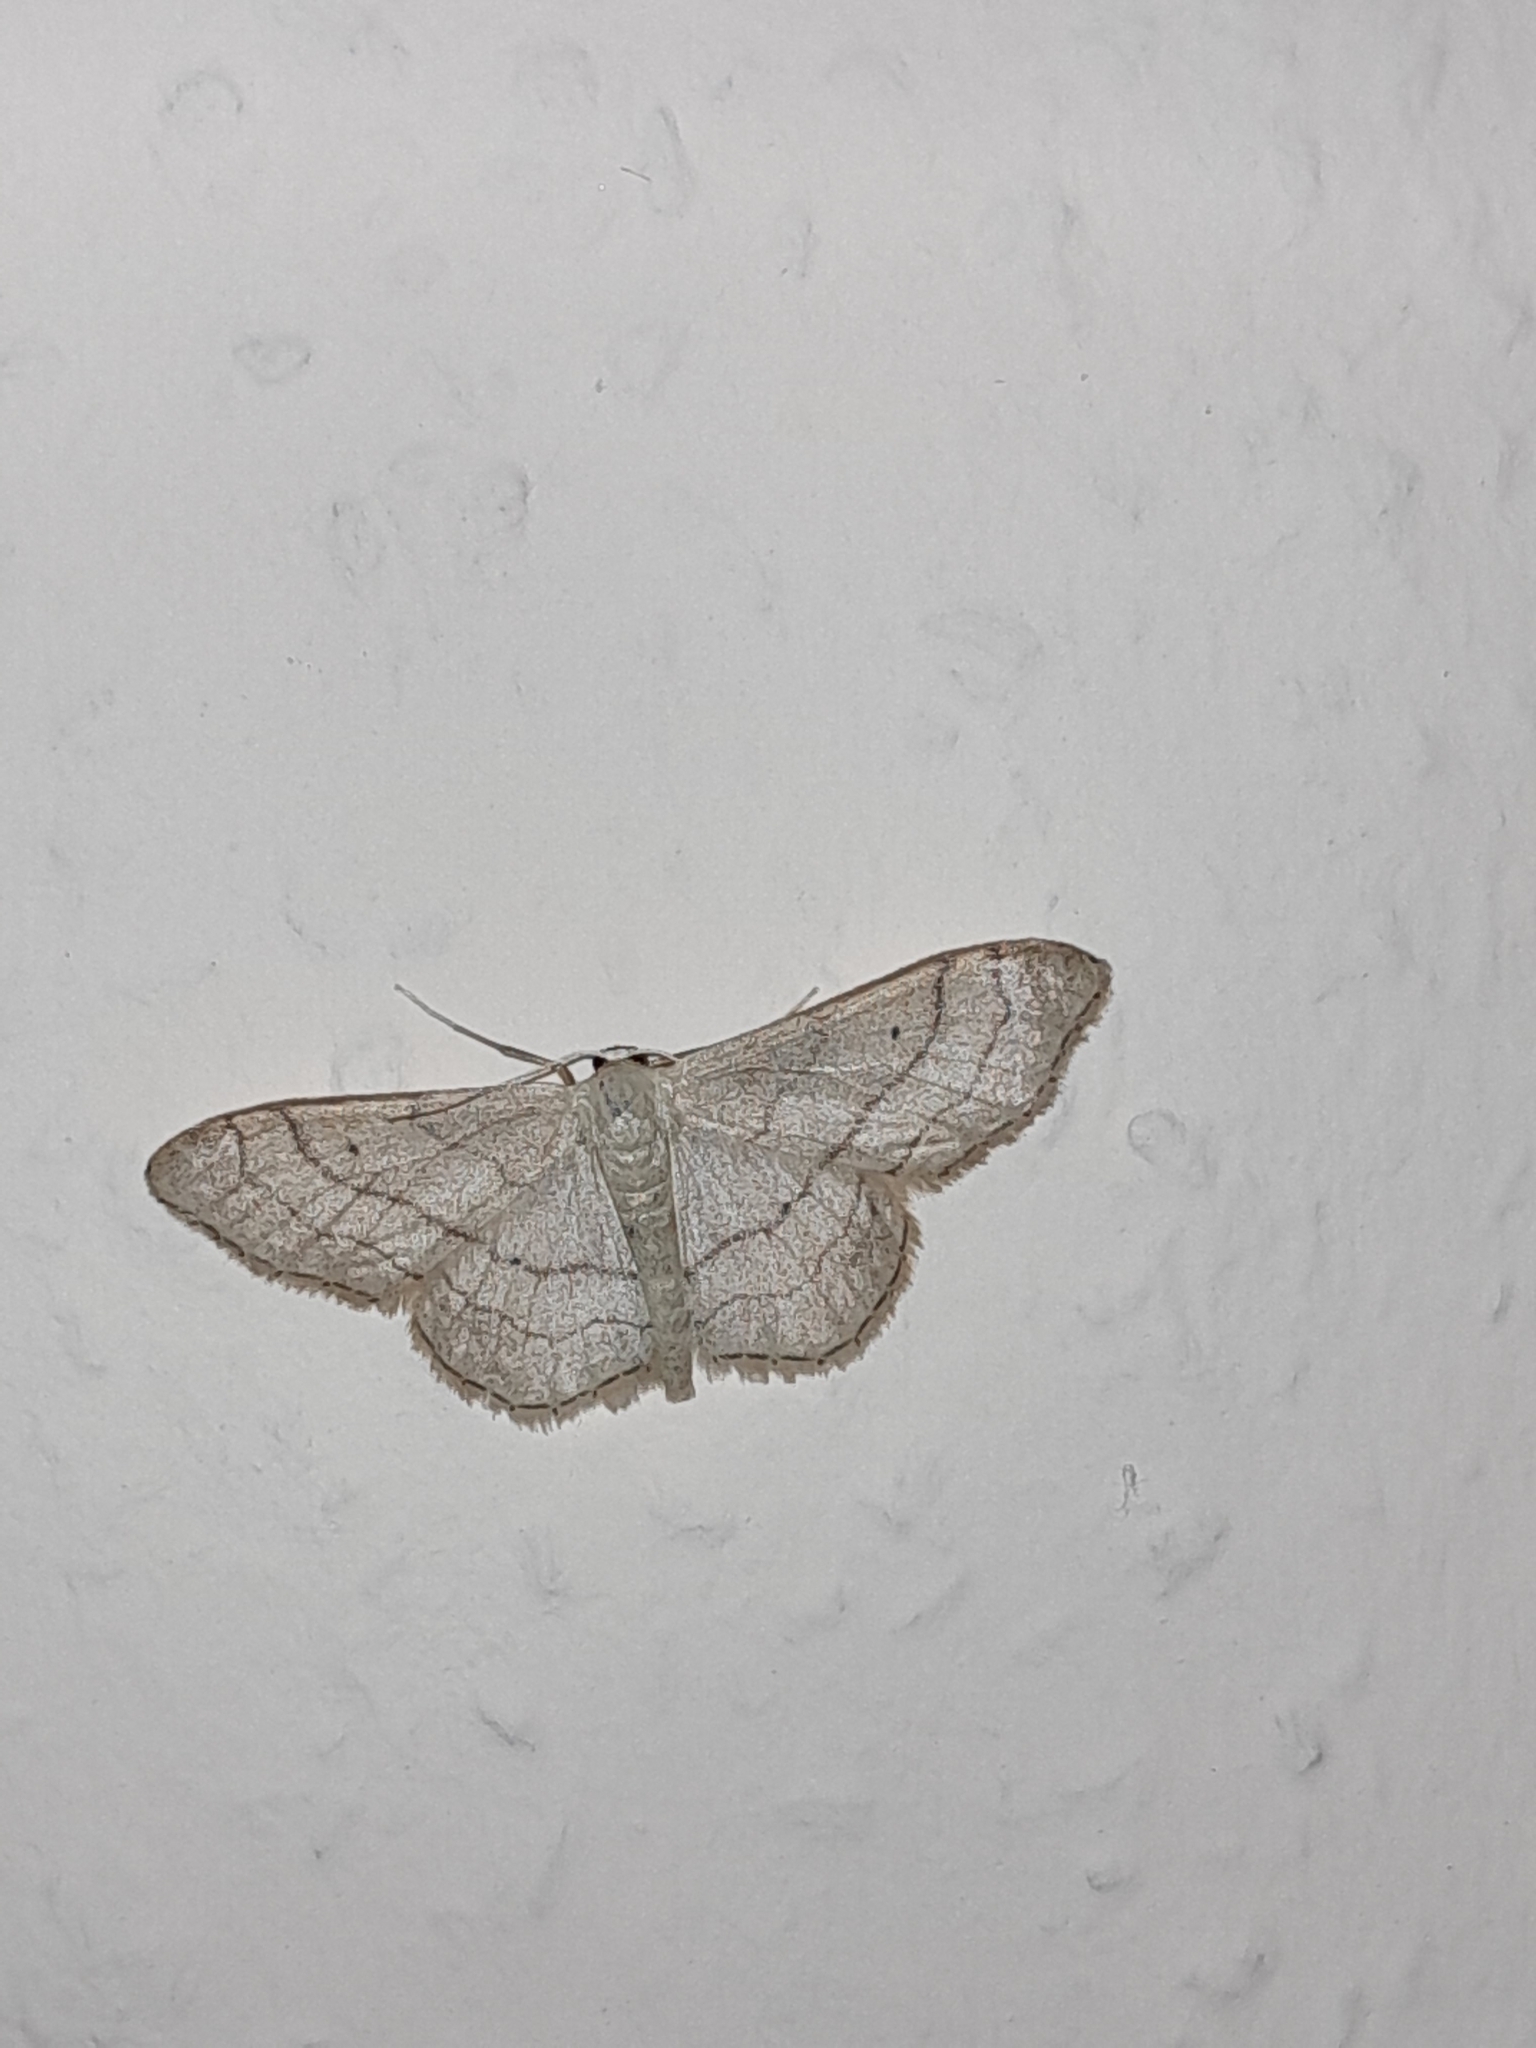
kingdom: Animalia
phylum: Arthropoda
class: Insecta
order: Lepidoptera
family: Geometridae
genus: Idaea
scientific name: Idaea aversata
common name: Riband wave
